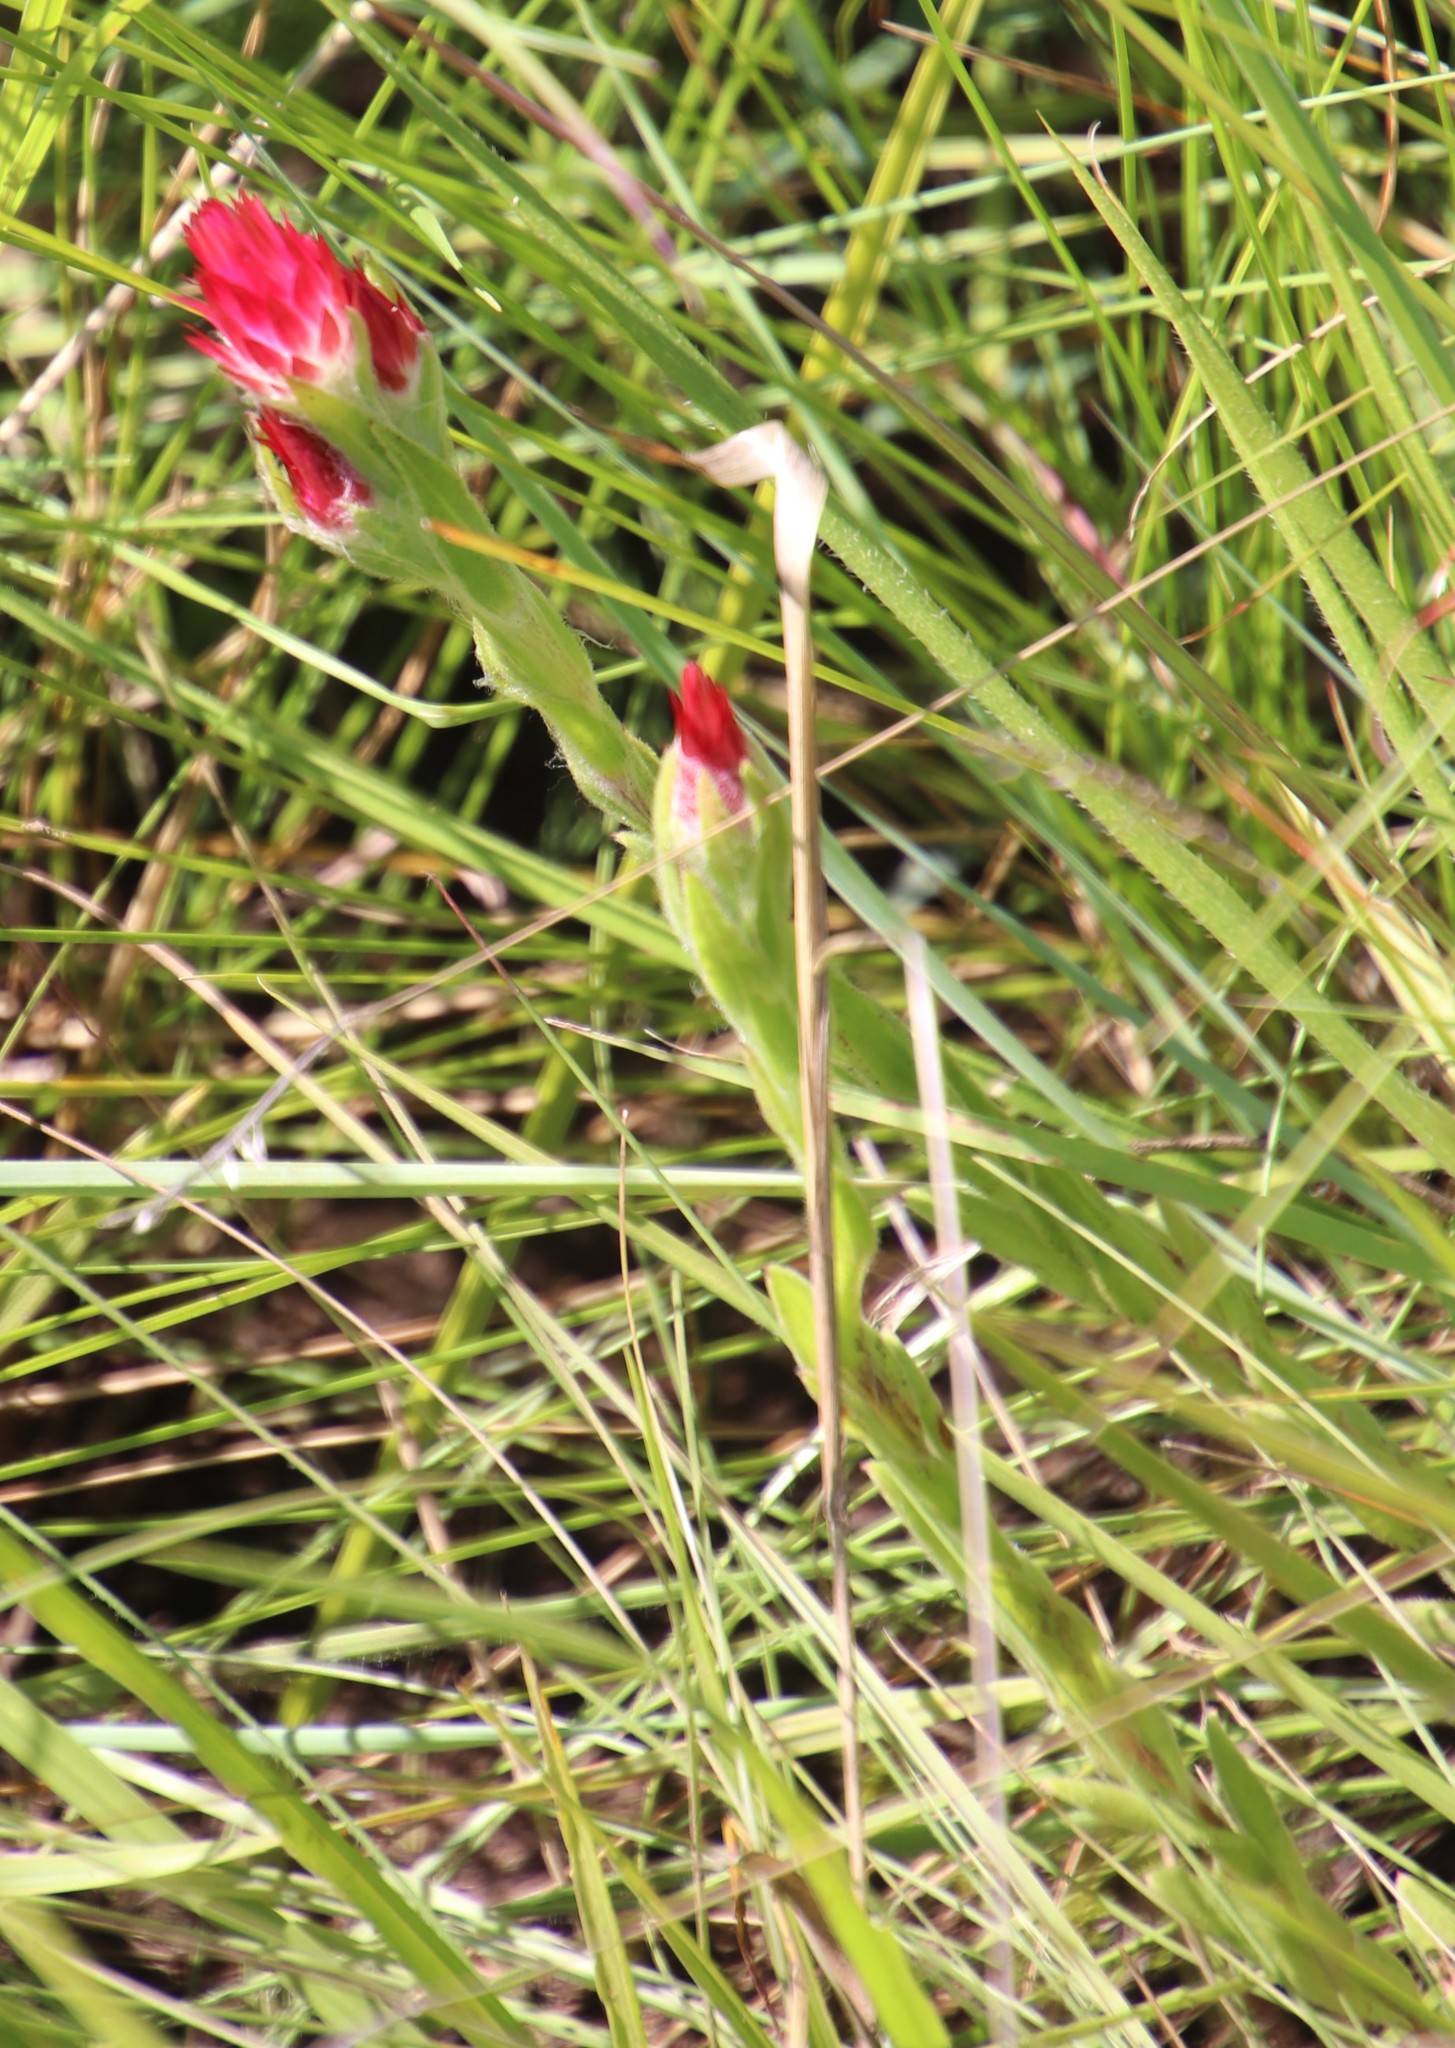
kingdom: Plantae
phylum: Tracheophyta
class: Magnoliopsida
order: Asterales
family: Asteraceae
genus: Helichrysum
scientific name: Helichrysum adenocarpum
